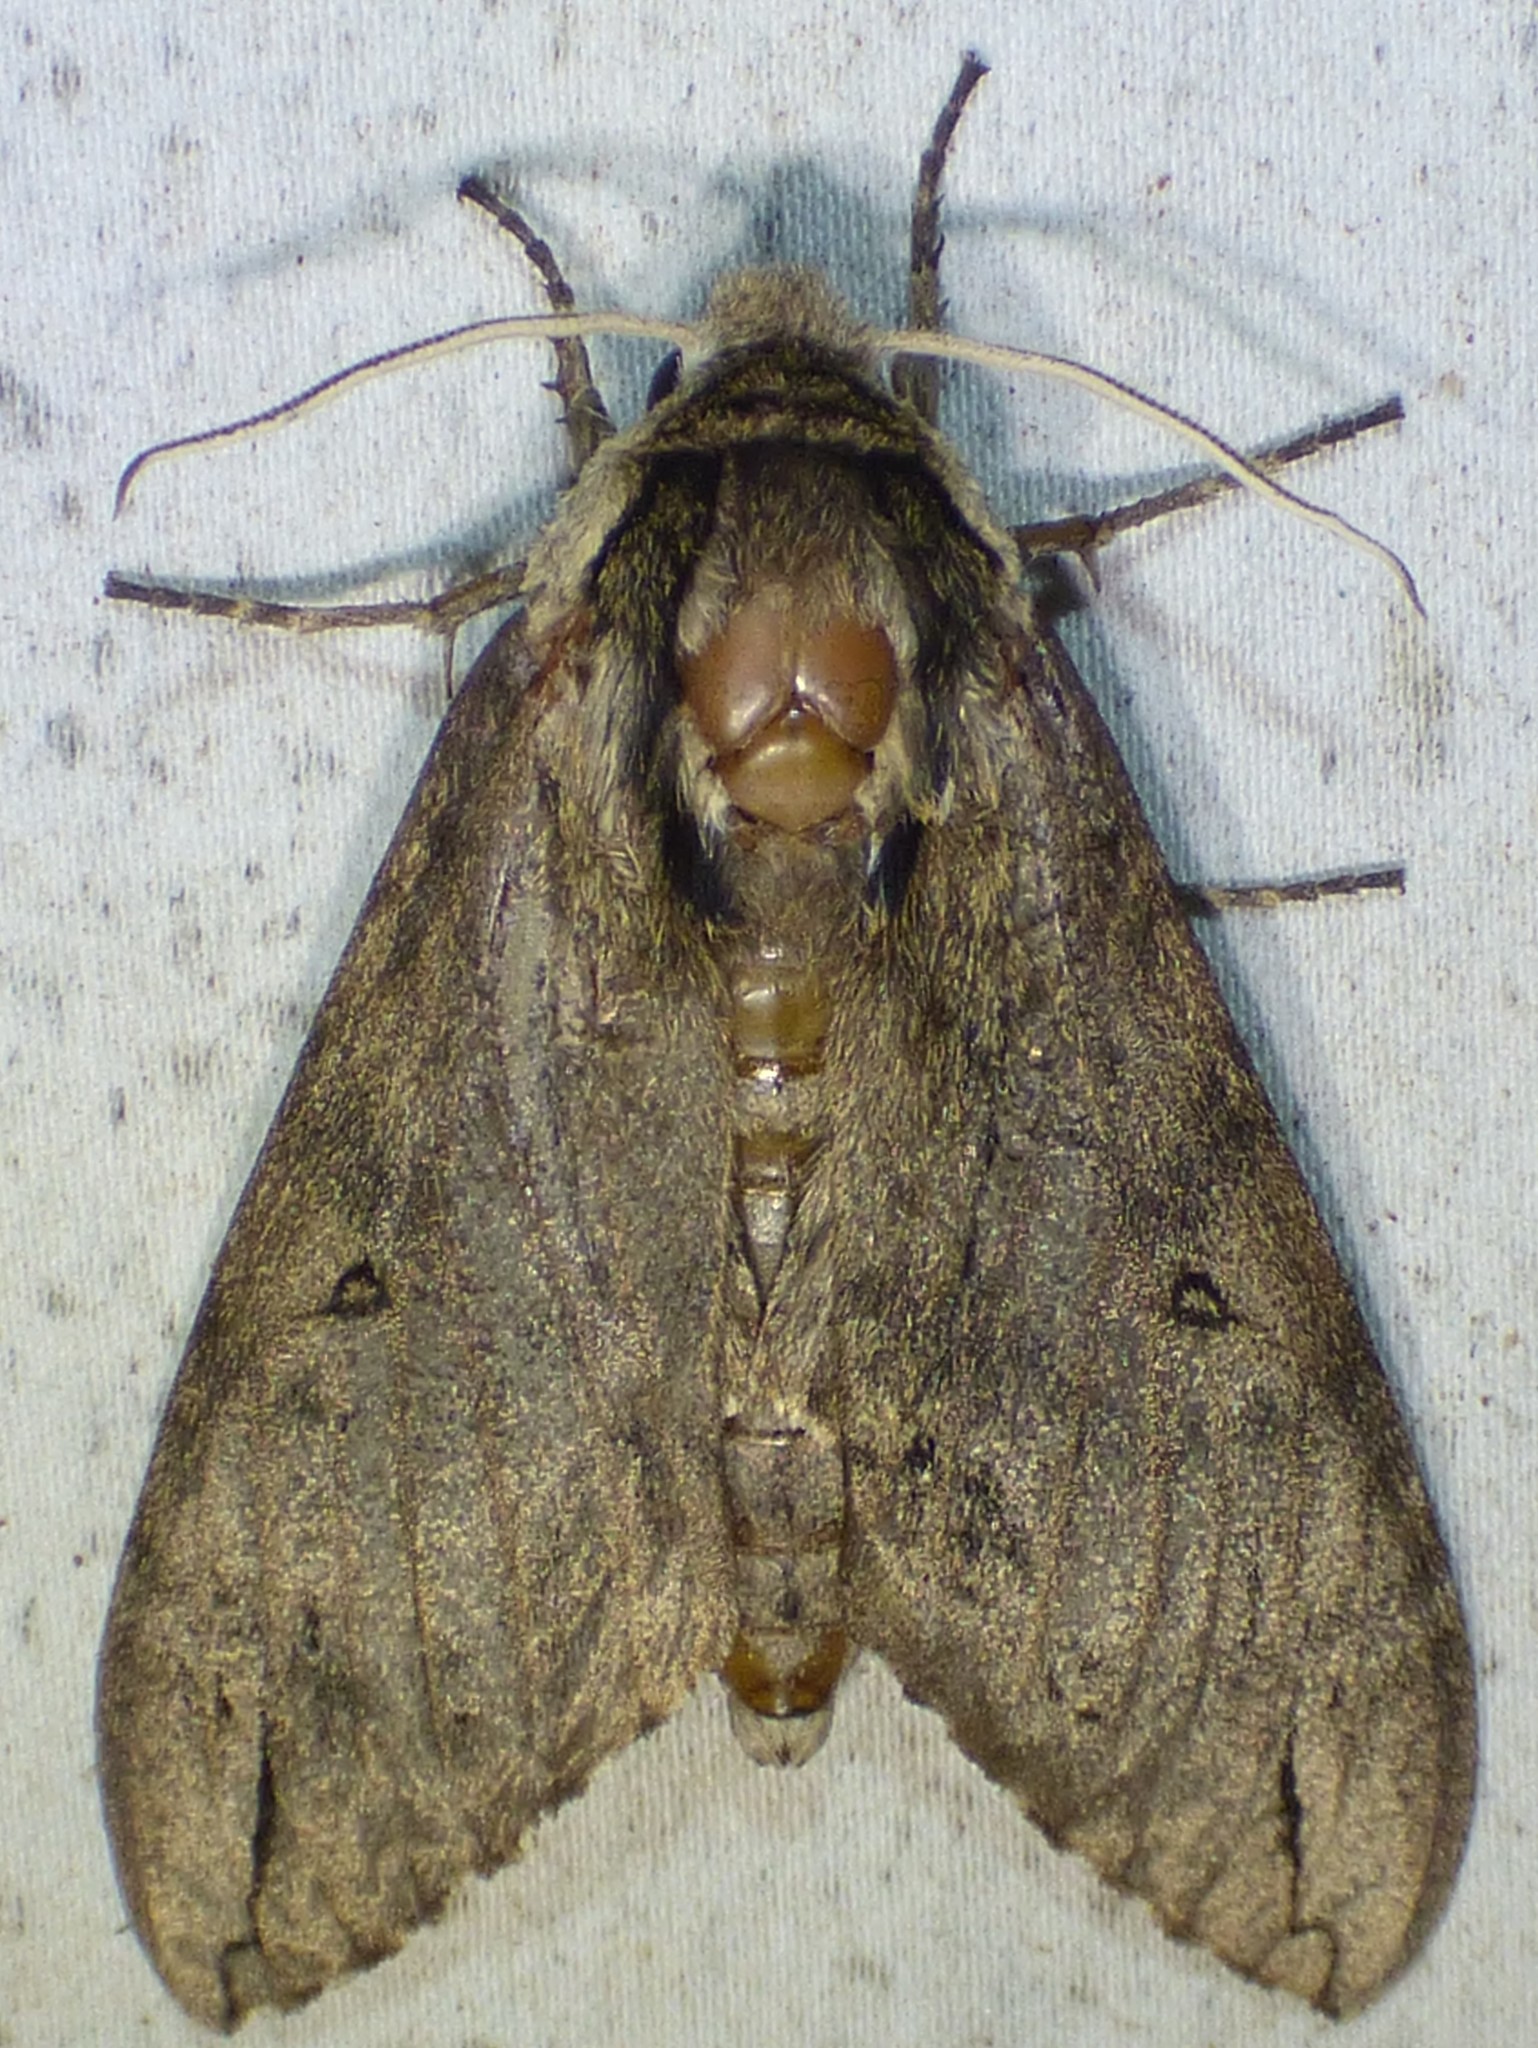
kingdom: Animalia
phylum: Arthropoda
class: Insecta
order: Lepidoptera
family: Sphingidae
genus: Ceratomia
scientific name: Ceratomia catalpae
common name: Catalpa hornworm
